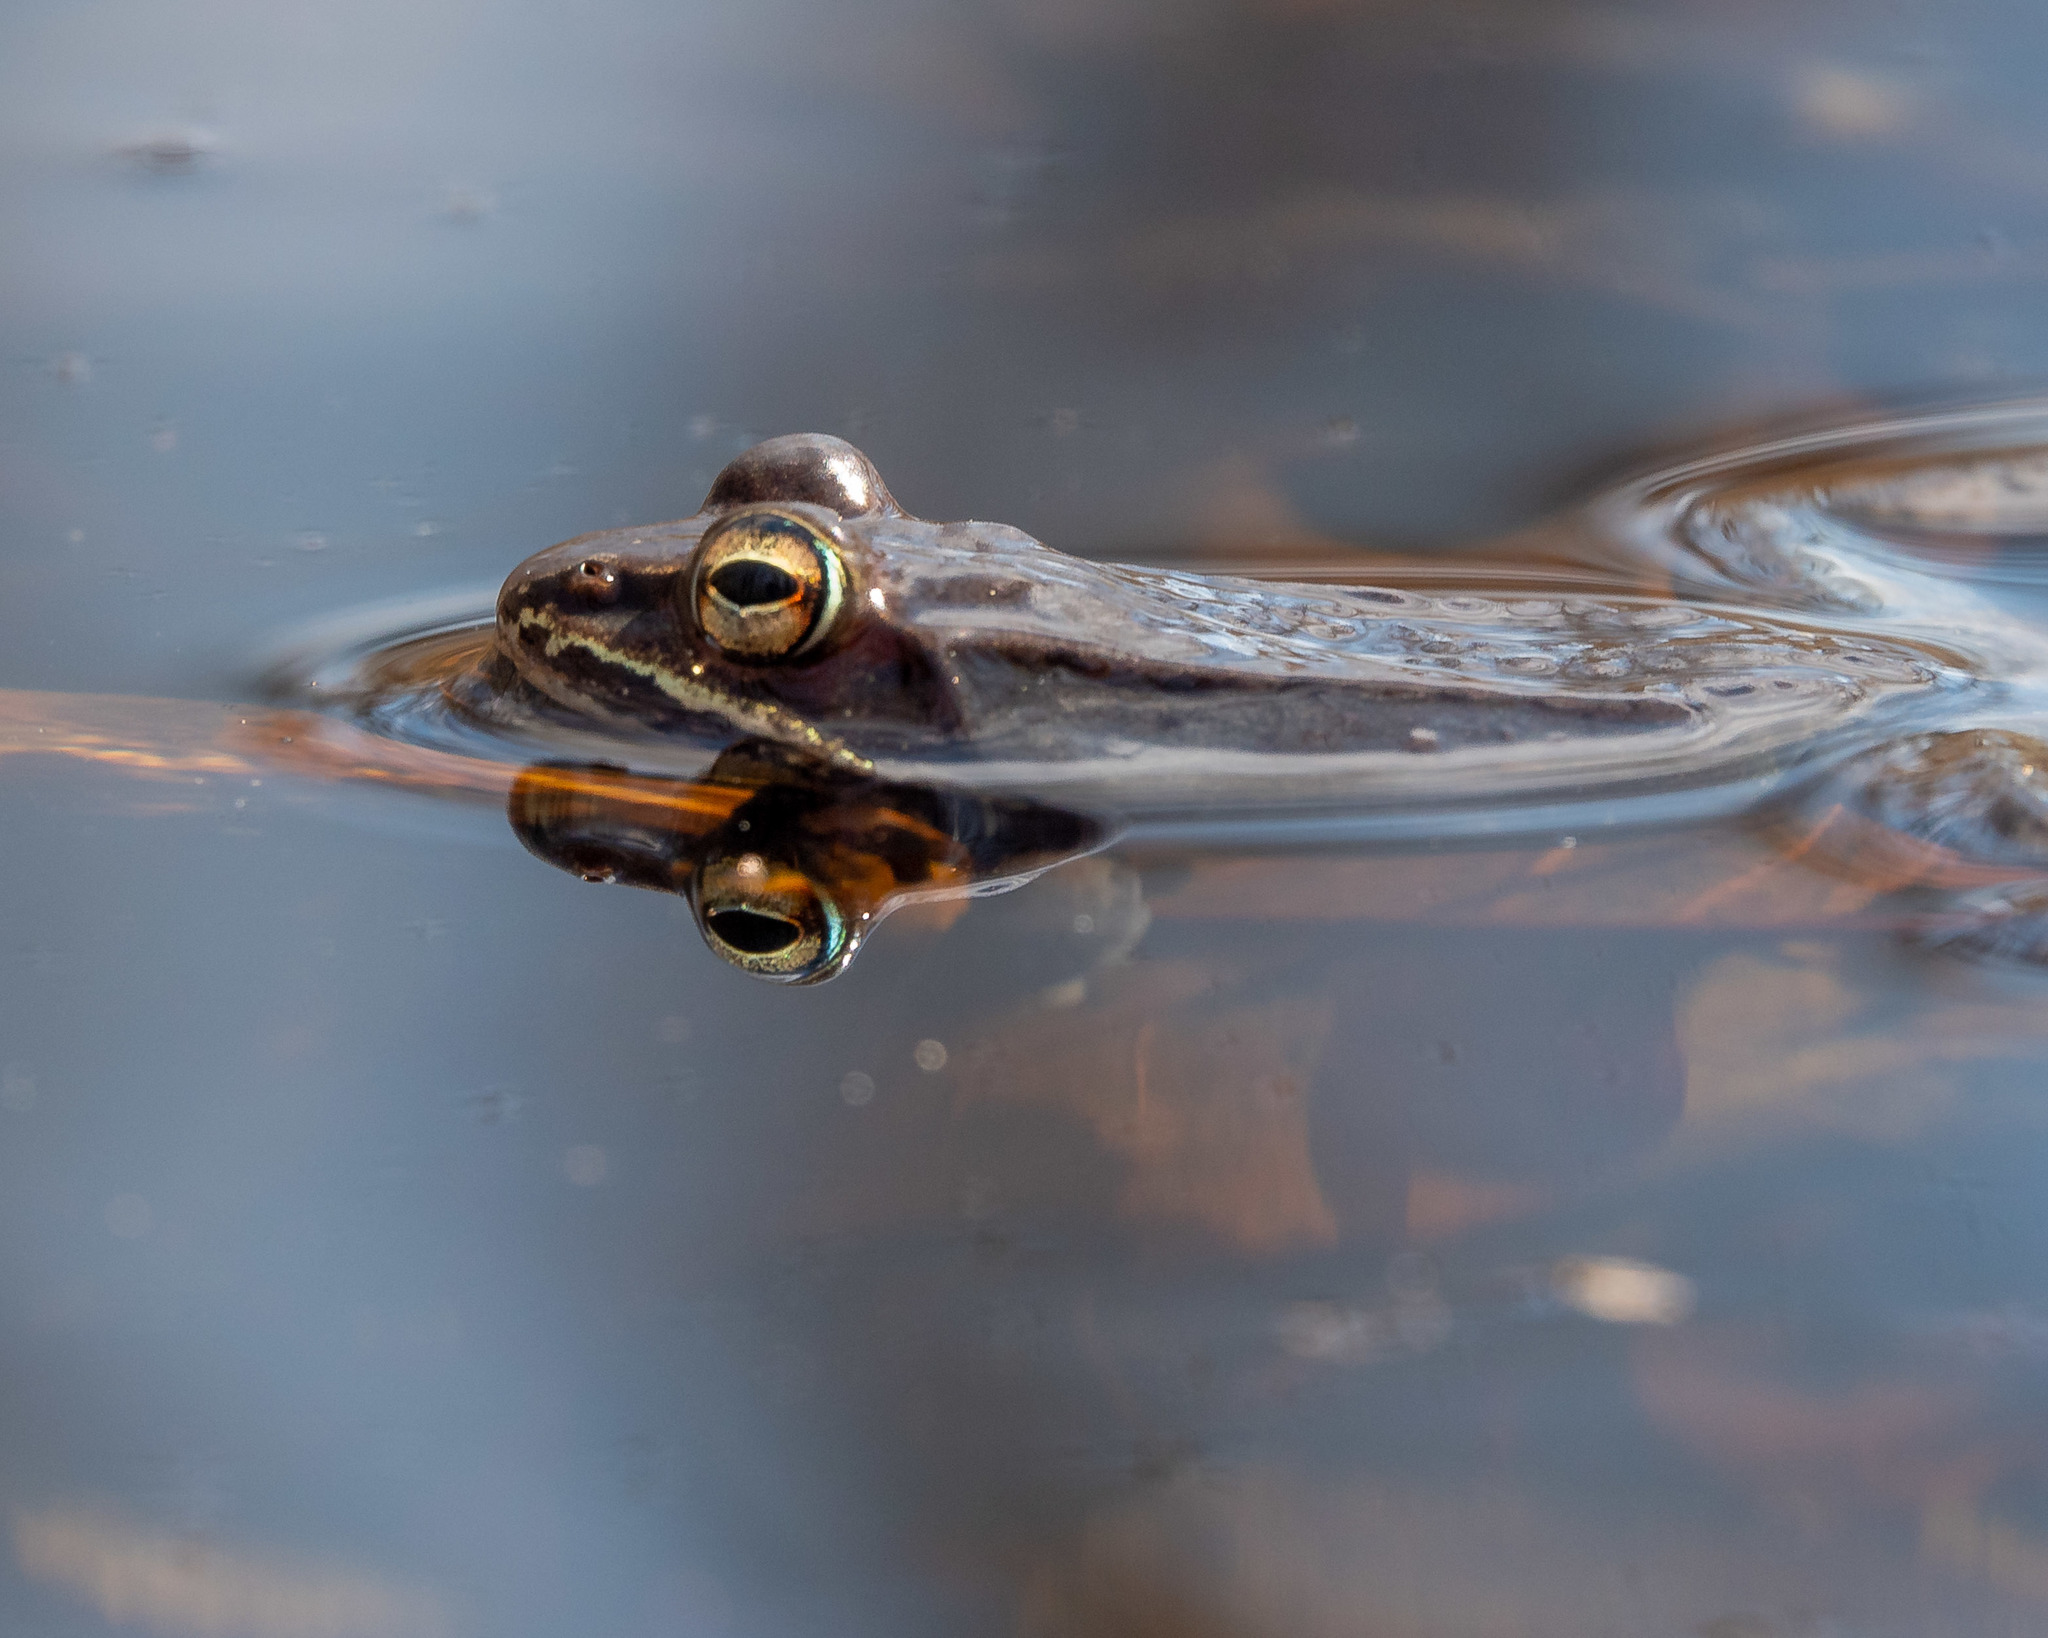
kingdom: Animalia
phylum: Chordata
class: Amphibia
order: Anura
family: Ranidae
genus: Lithobates
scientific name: Lithobates sylvaticus
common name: Wood frog
